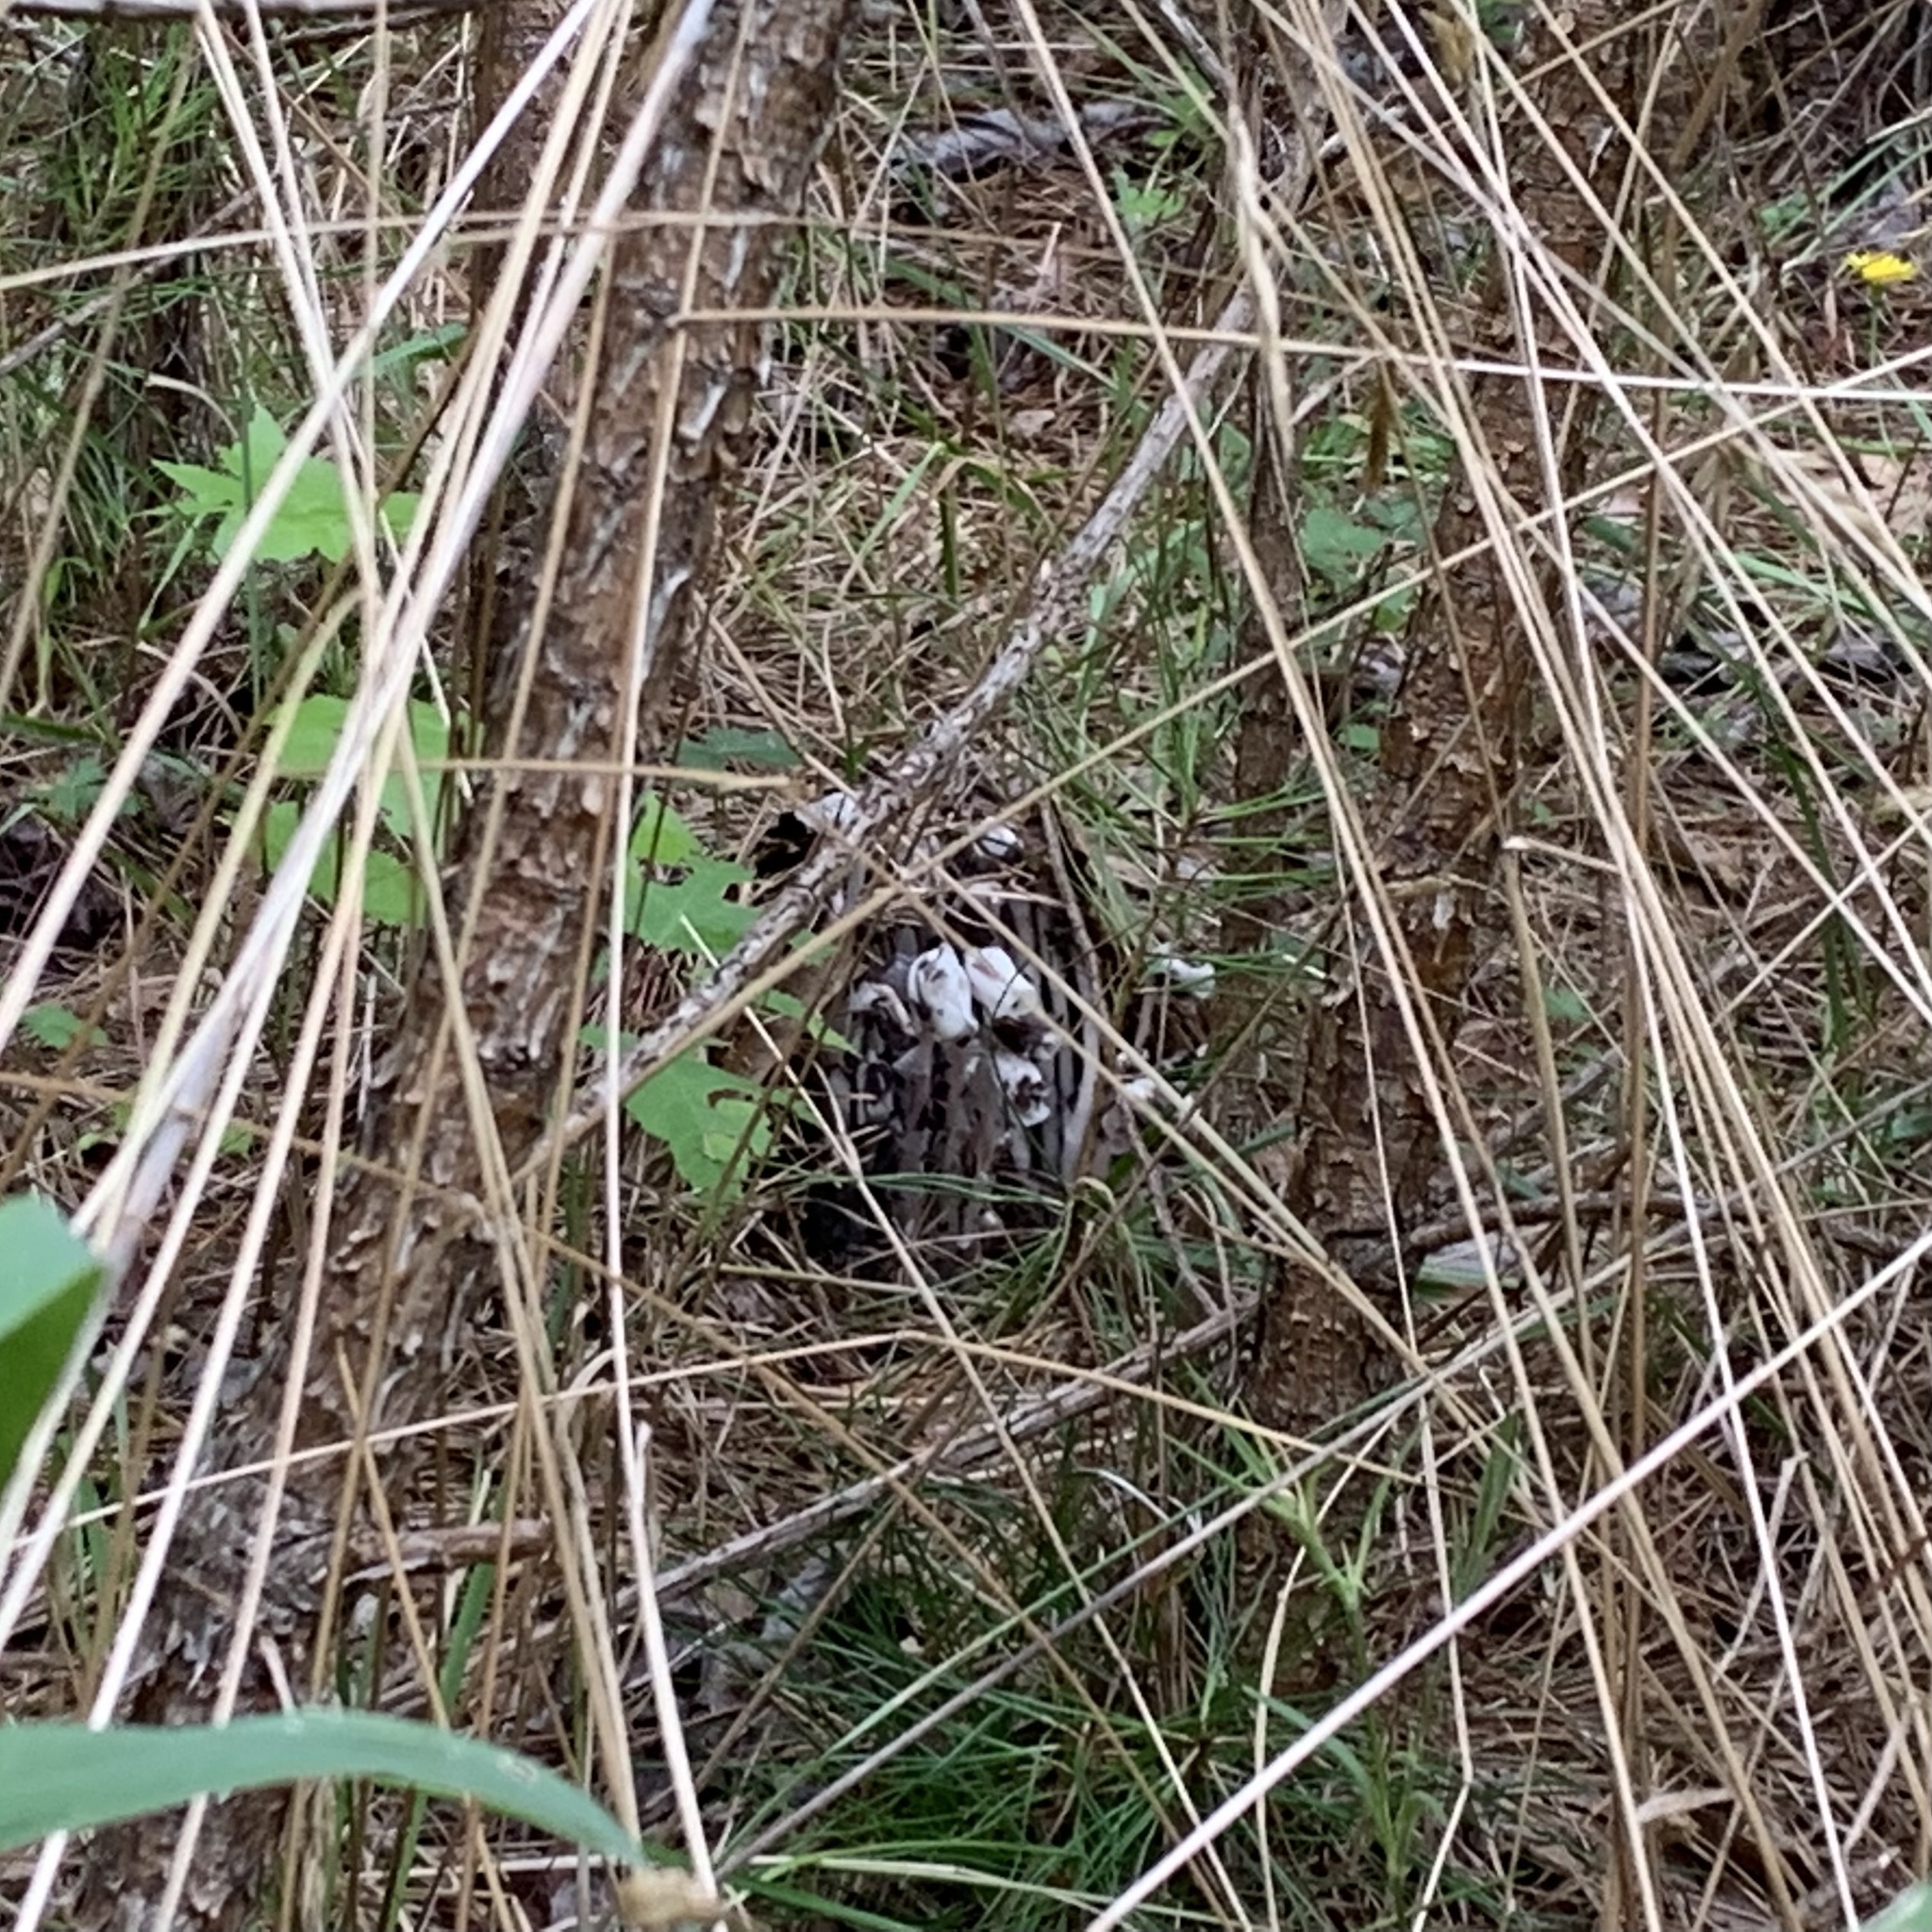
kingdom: Plantae
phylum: Tracheophyta
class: Magnoliopsida
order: Ericales
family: Ericaceae
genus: Monotropa
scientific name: Monotropa uniflora
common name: Convulsion root
